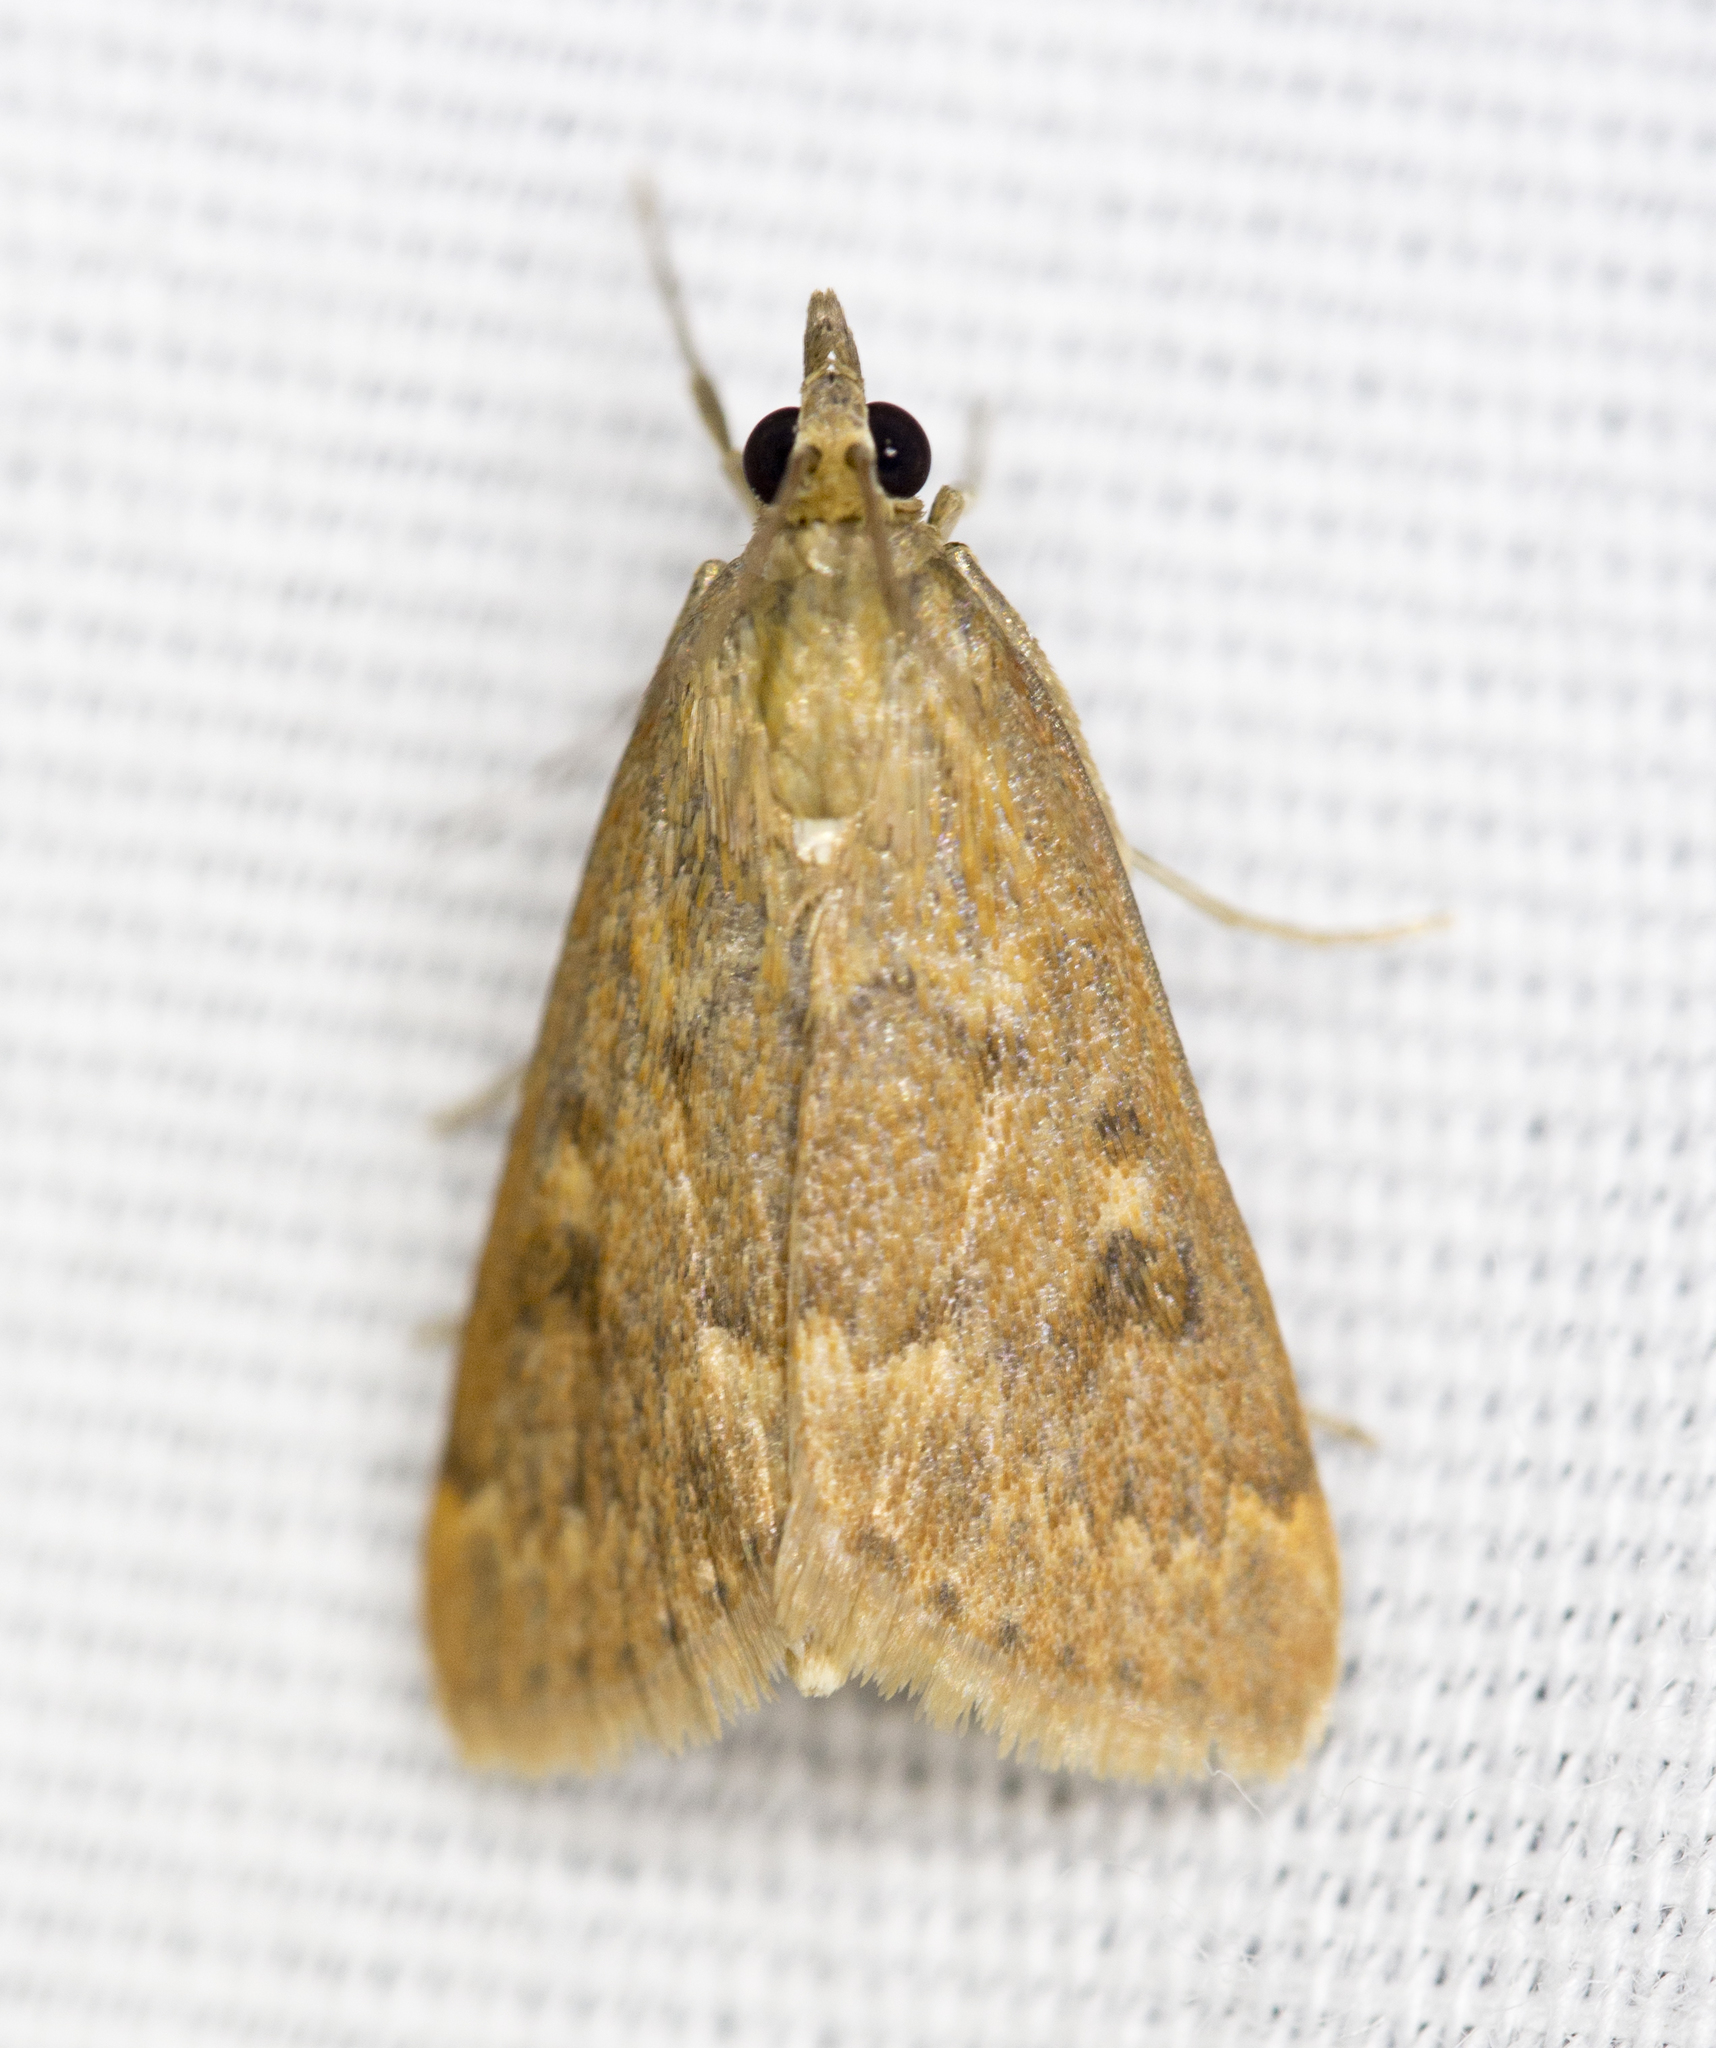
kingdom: Animalia
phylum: Arthropoda
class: Insecta
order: Lepidoptera
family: Crambidae
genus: Achyra
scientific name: Achyra rantalis
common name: Garden webworm
